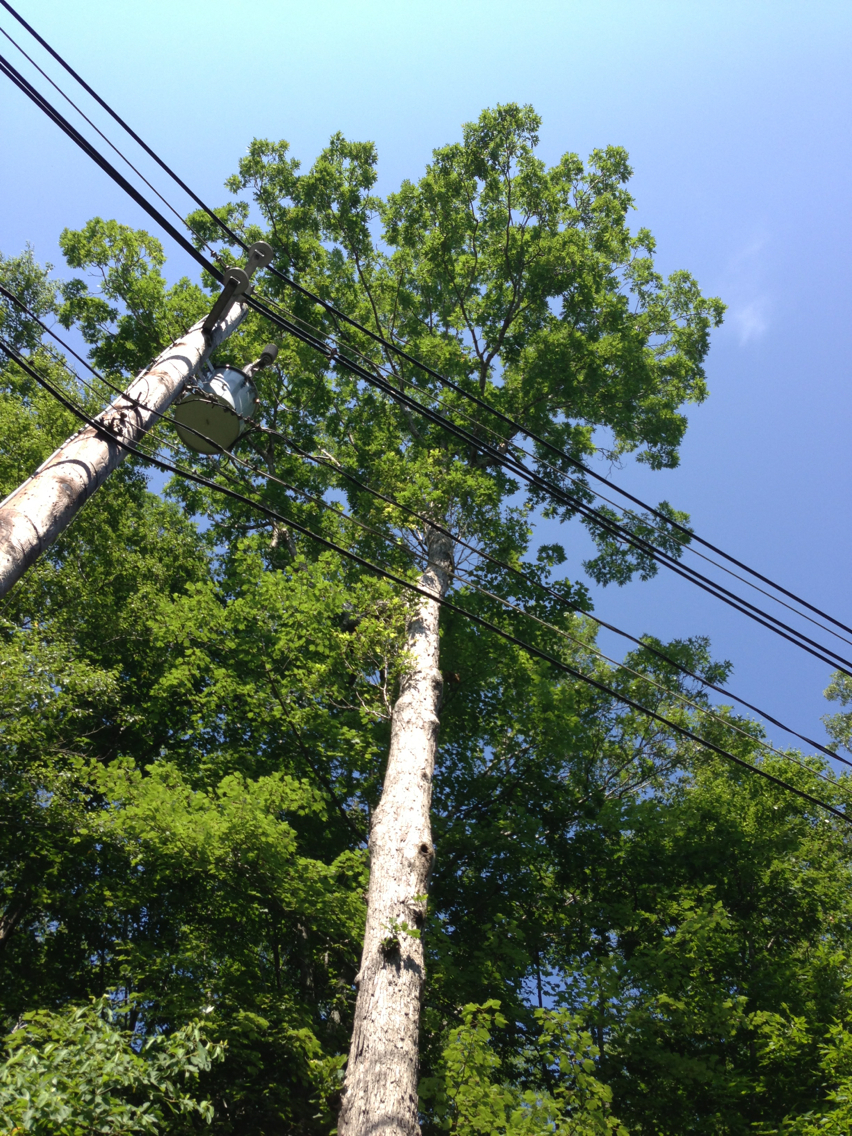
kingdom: Plantae
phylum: Tracheophyta
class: Magnoliopsida
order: Fagales
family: Fagaceae
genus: Quercus
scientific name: Quercus alba
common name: White oak
